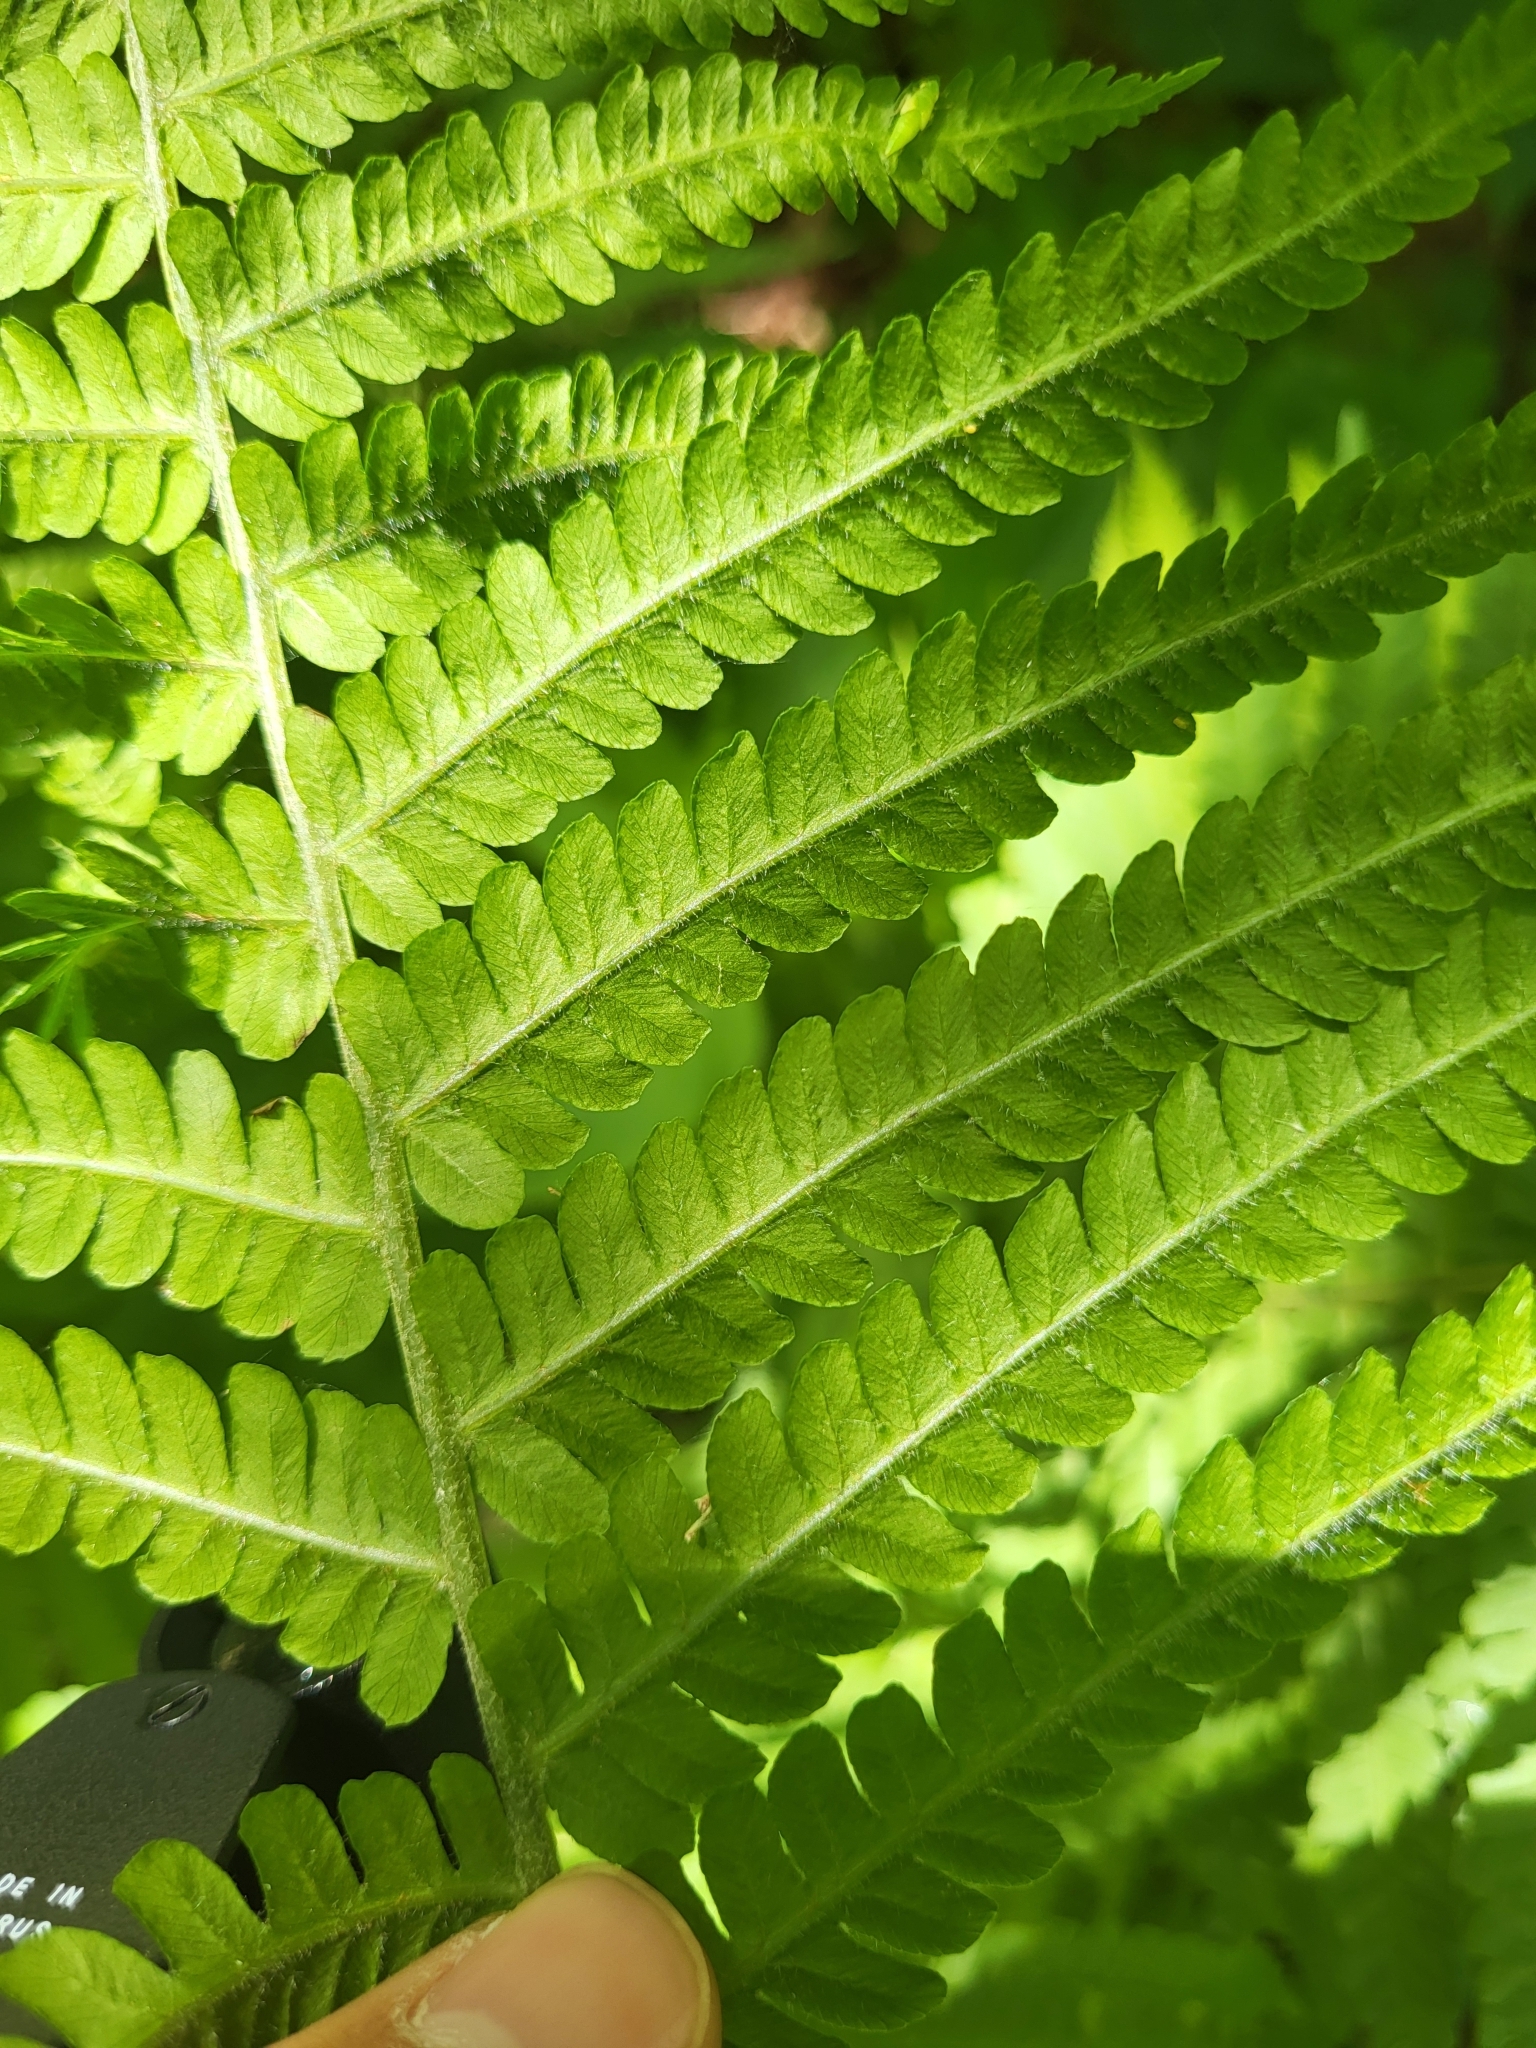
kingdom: Plantae
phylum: Tracheophyta
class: Polypodiopsida
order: Polypodiales
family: Onocleaceae
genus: Matteuccia
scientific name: Matteuccia struthiopteris
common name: Ostrich fern
